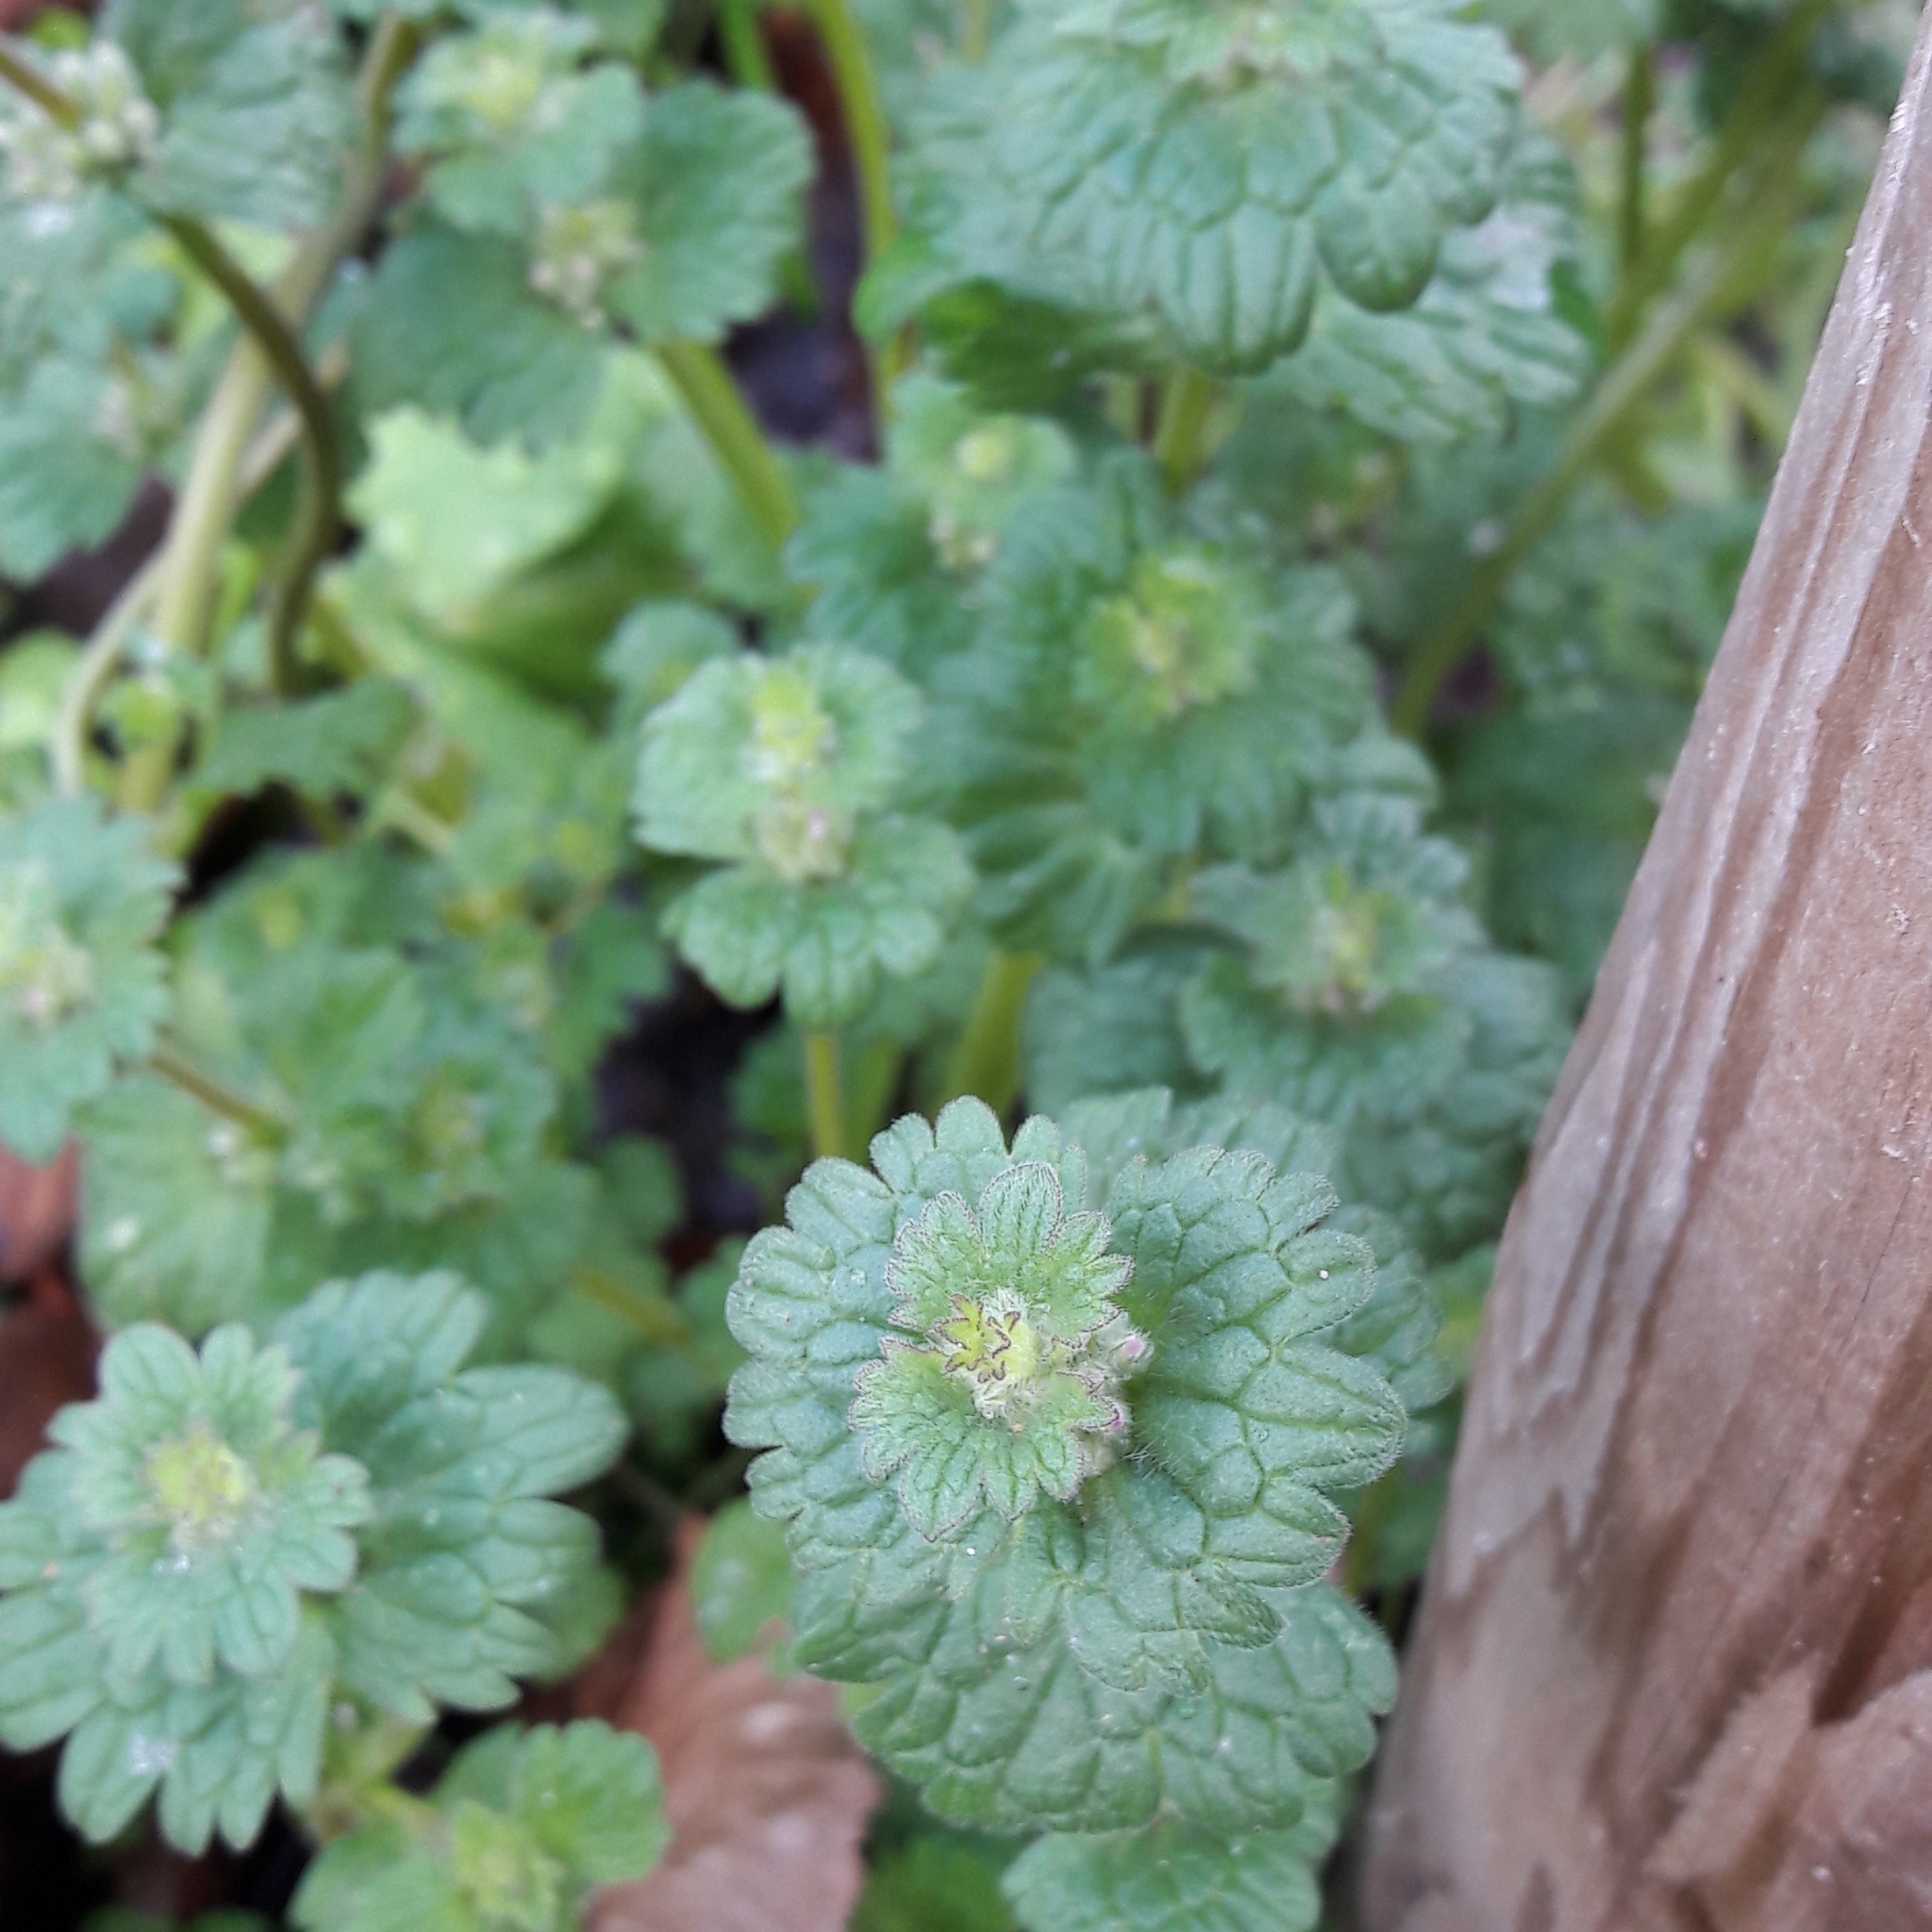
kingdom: Plantae
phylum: Tracheophyta
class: Magnoliopsida
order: Lamiales
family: Lamiaceae
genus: Lamium
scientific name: Lamium amplexicaule
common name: Henbit dead-nettle
